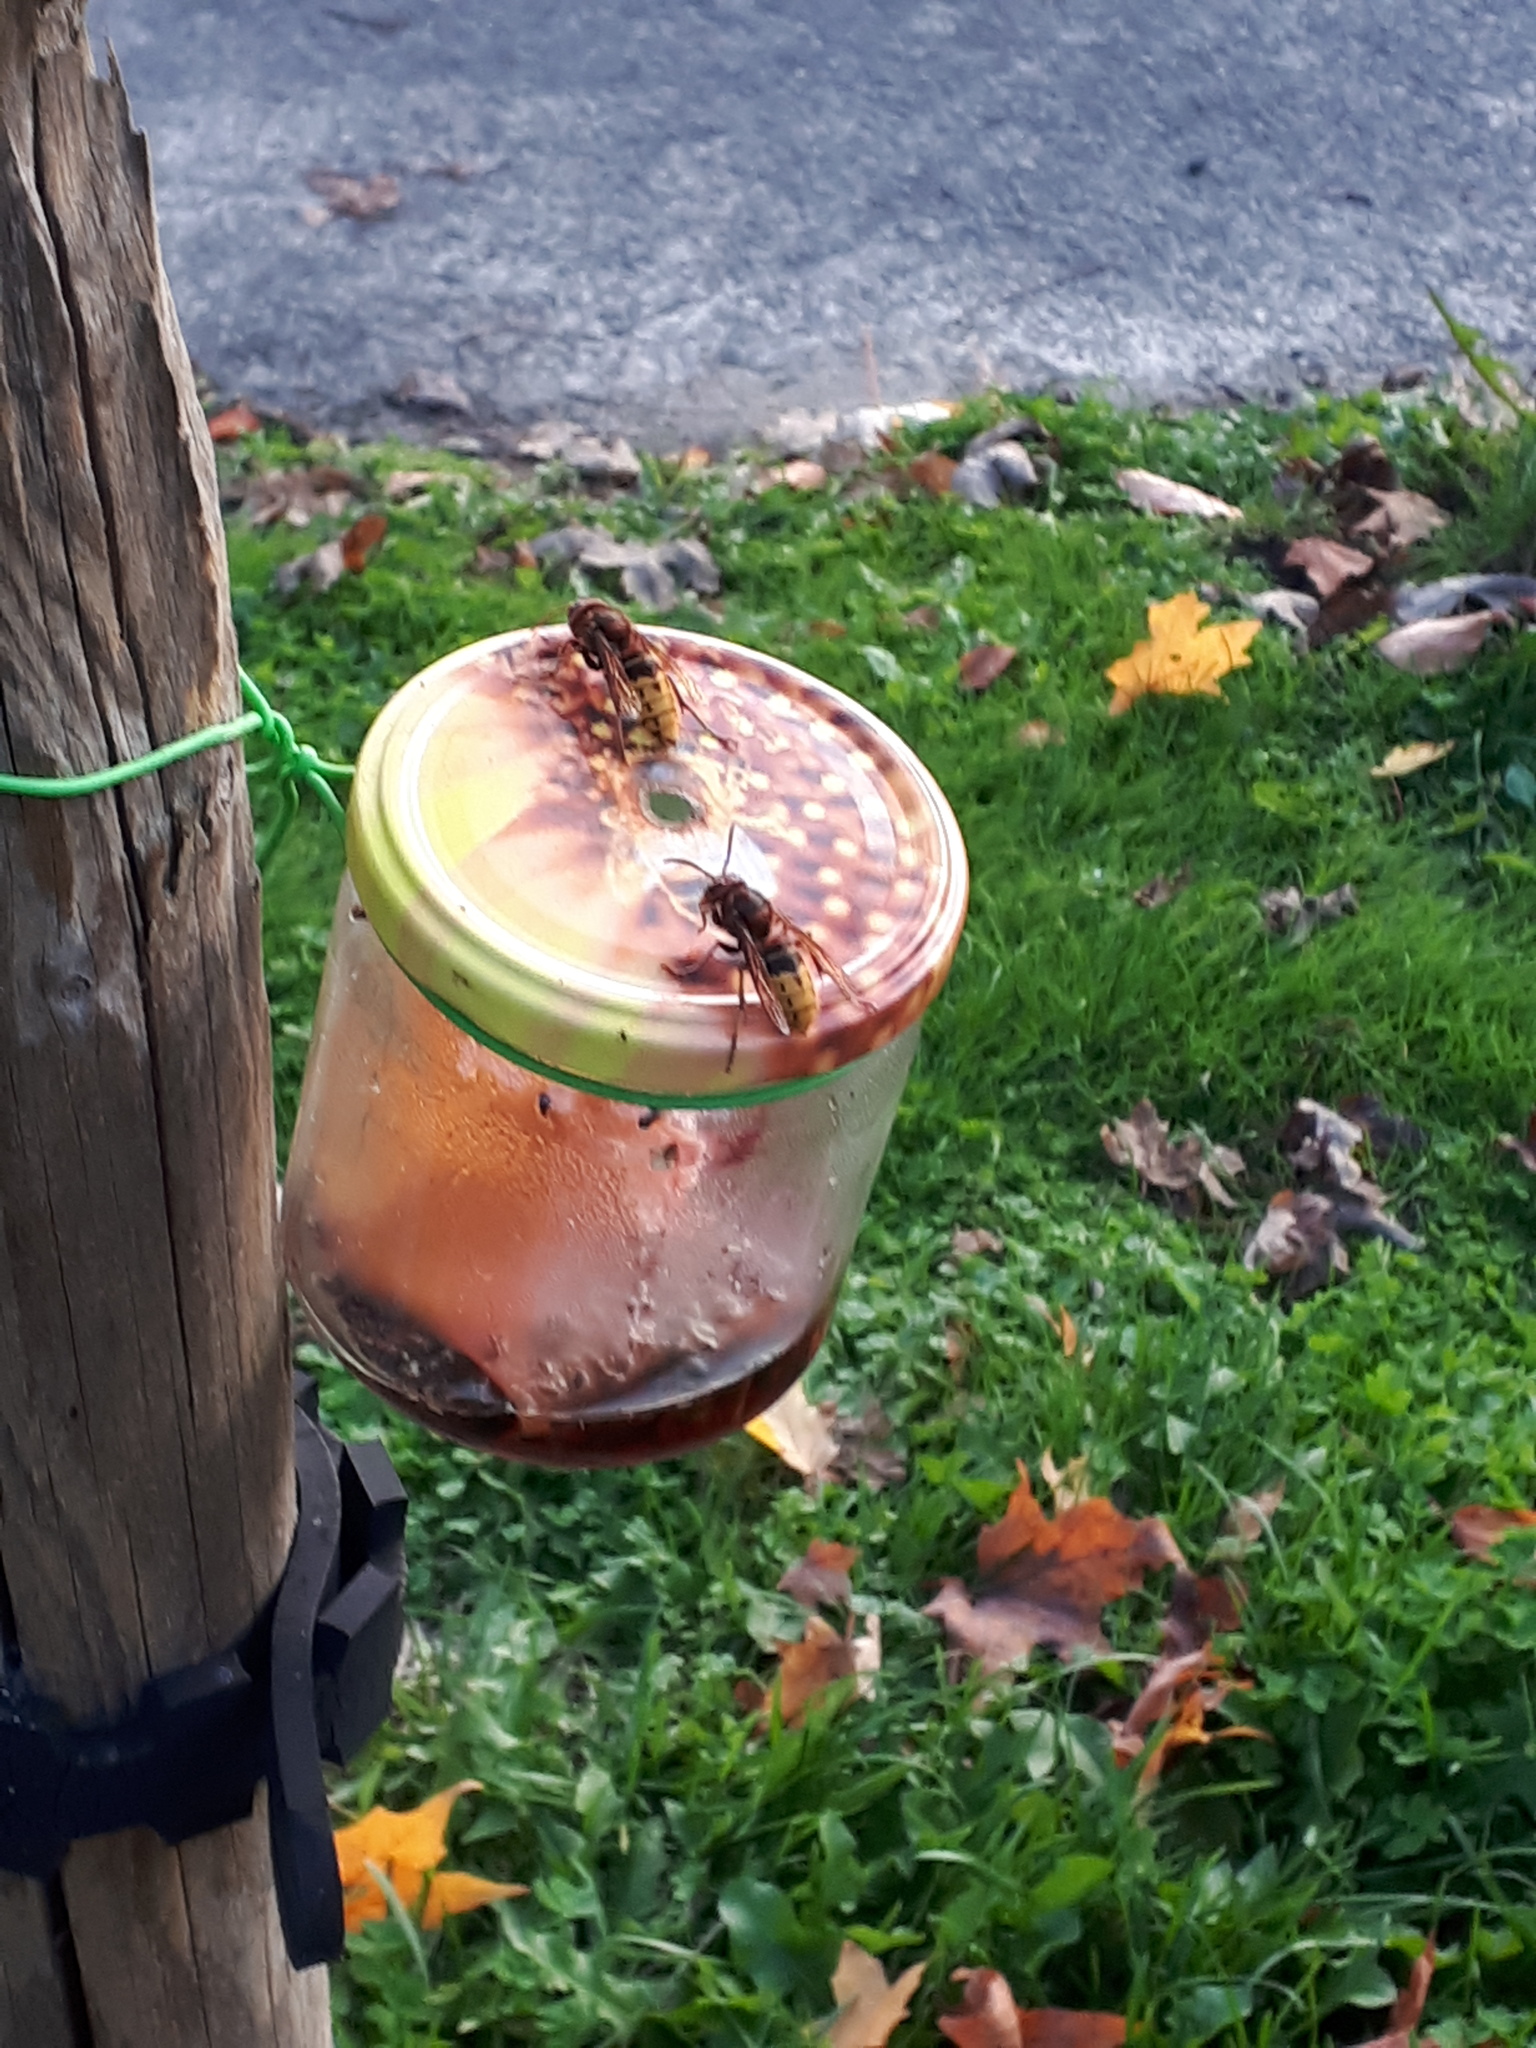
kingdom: Animalia
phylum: Arthropoda
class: Insecta
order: Hymenoptera
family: Vespidae
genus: Vespa
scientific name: Vespa crabro
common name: Hornet
